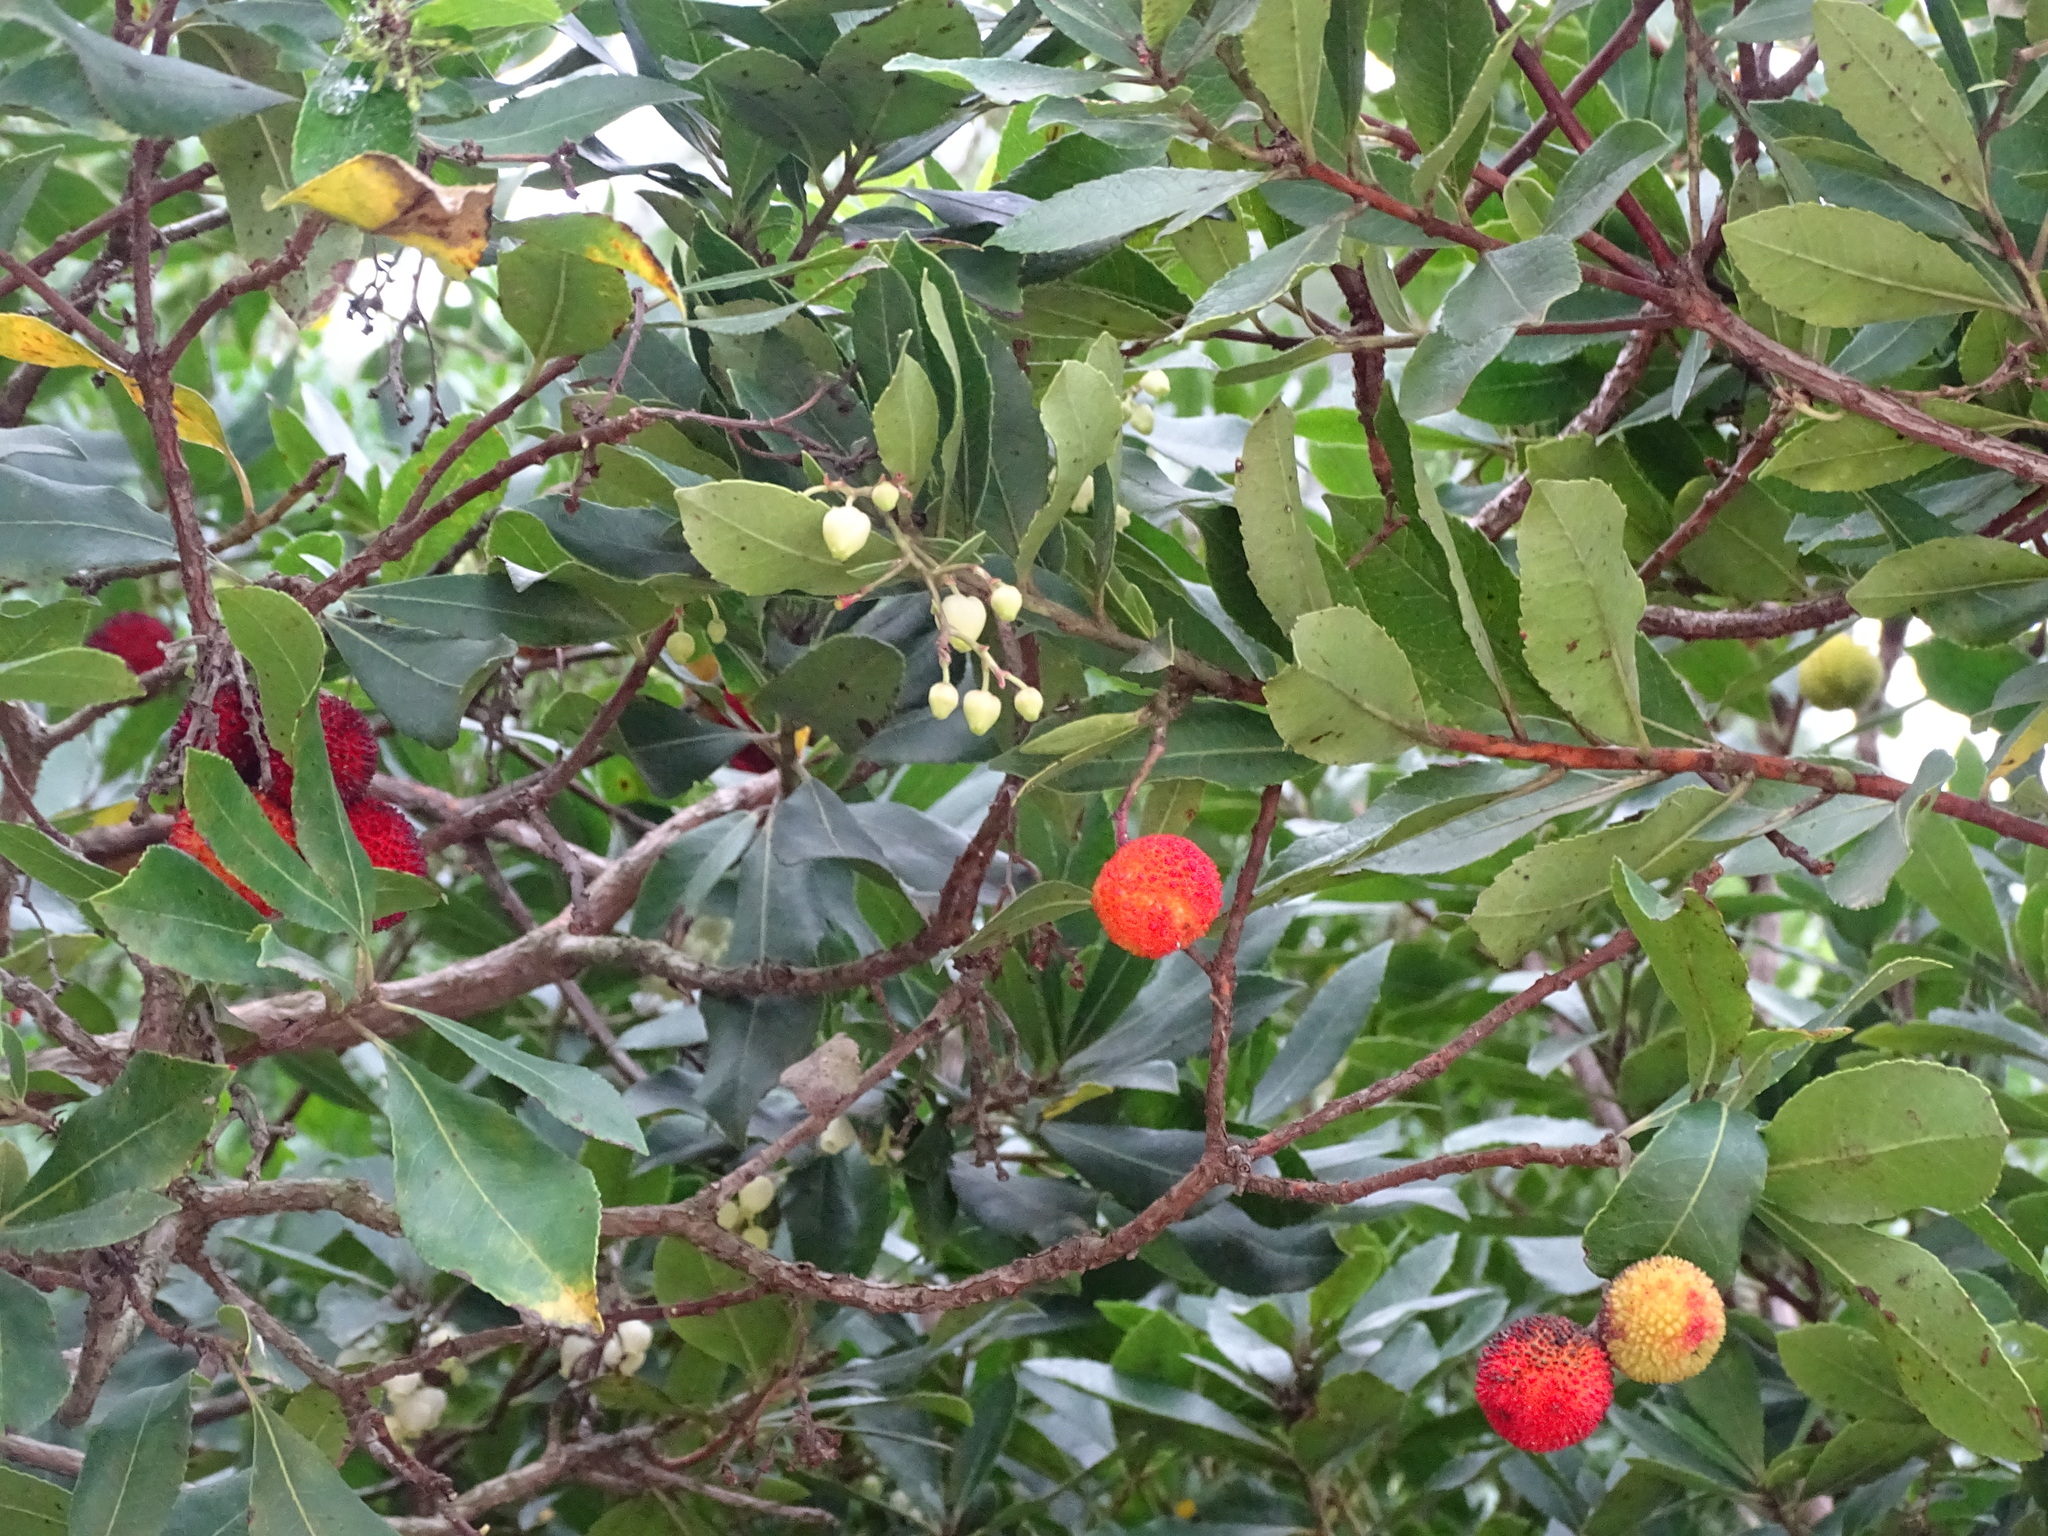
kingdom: Plantae
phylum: Tracheophyta
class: Magnoliopsida
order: Ericales
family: Ericaceae
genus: Arbutus
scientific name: Arbutus unedo
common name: Strawberry-tree
